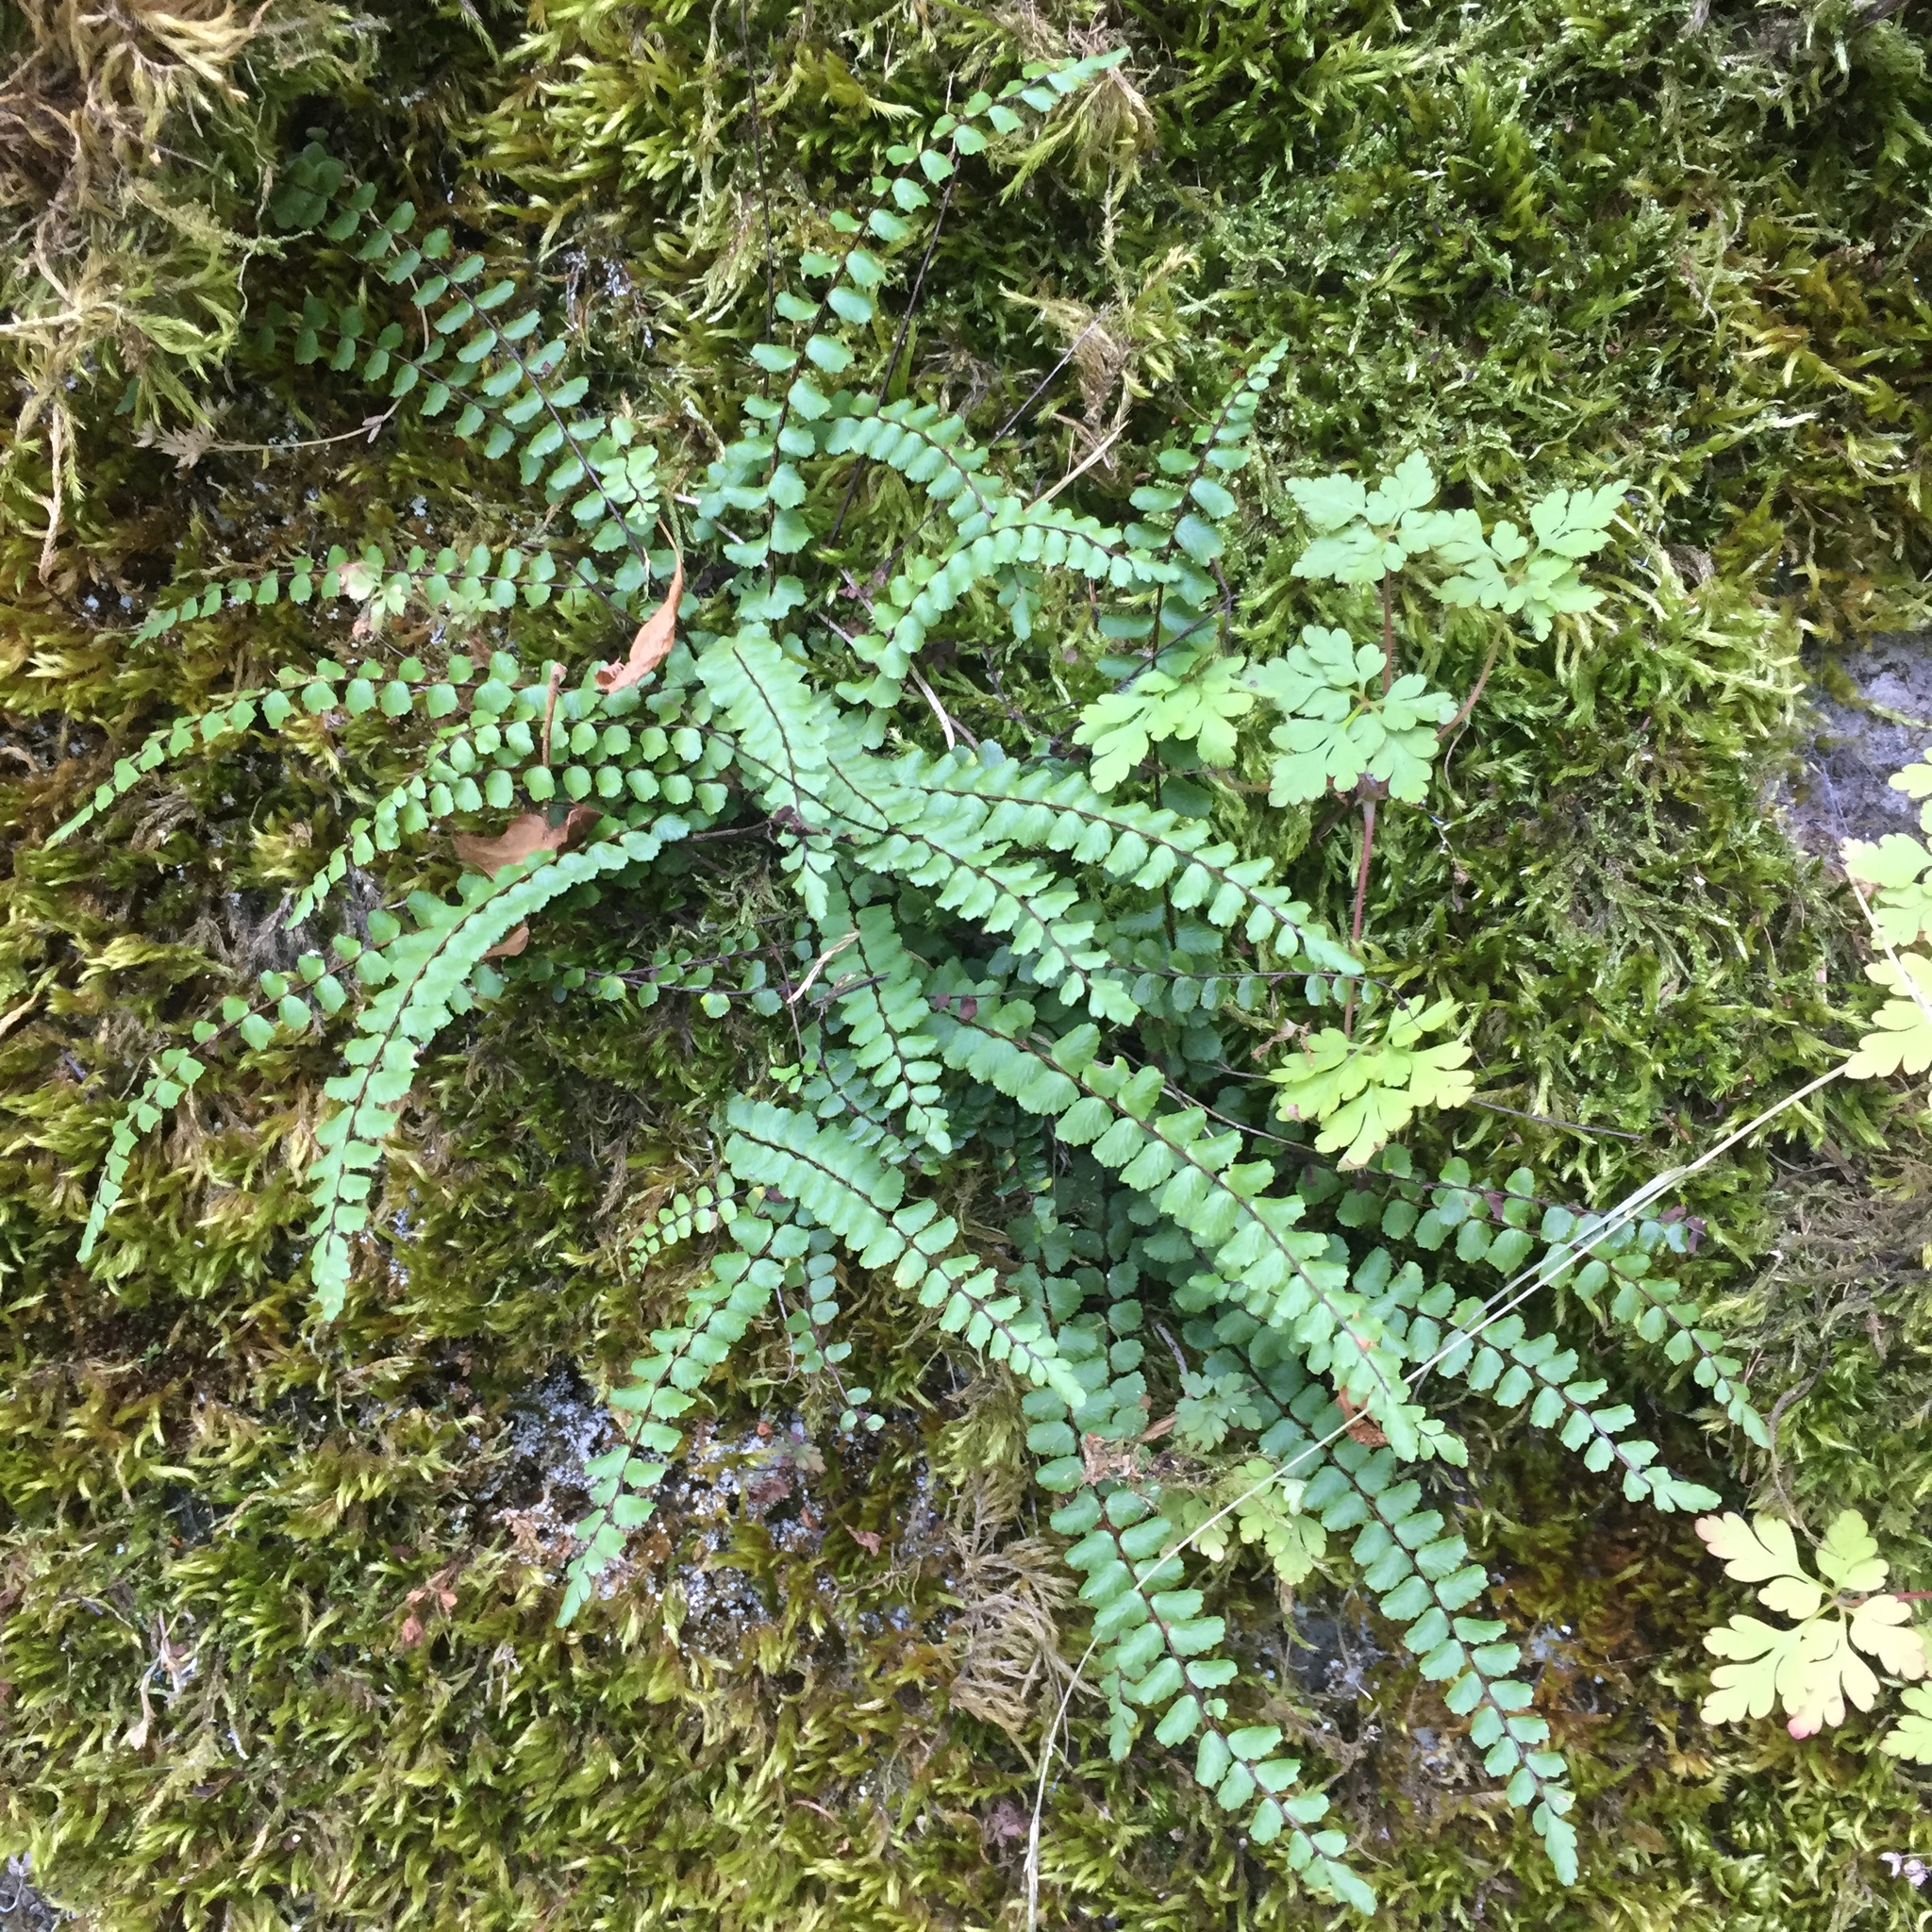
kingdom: Plantae
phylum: Tracheophyta
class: Polypodiopsida
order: Polypodiales
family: Aspleniaceae
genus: Asplenium
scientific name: Asplenium trichomanes
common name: Maidenhair spleenwort
